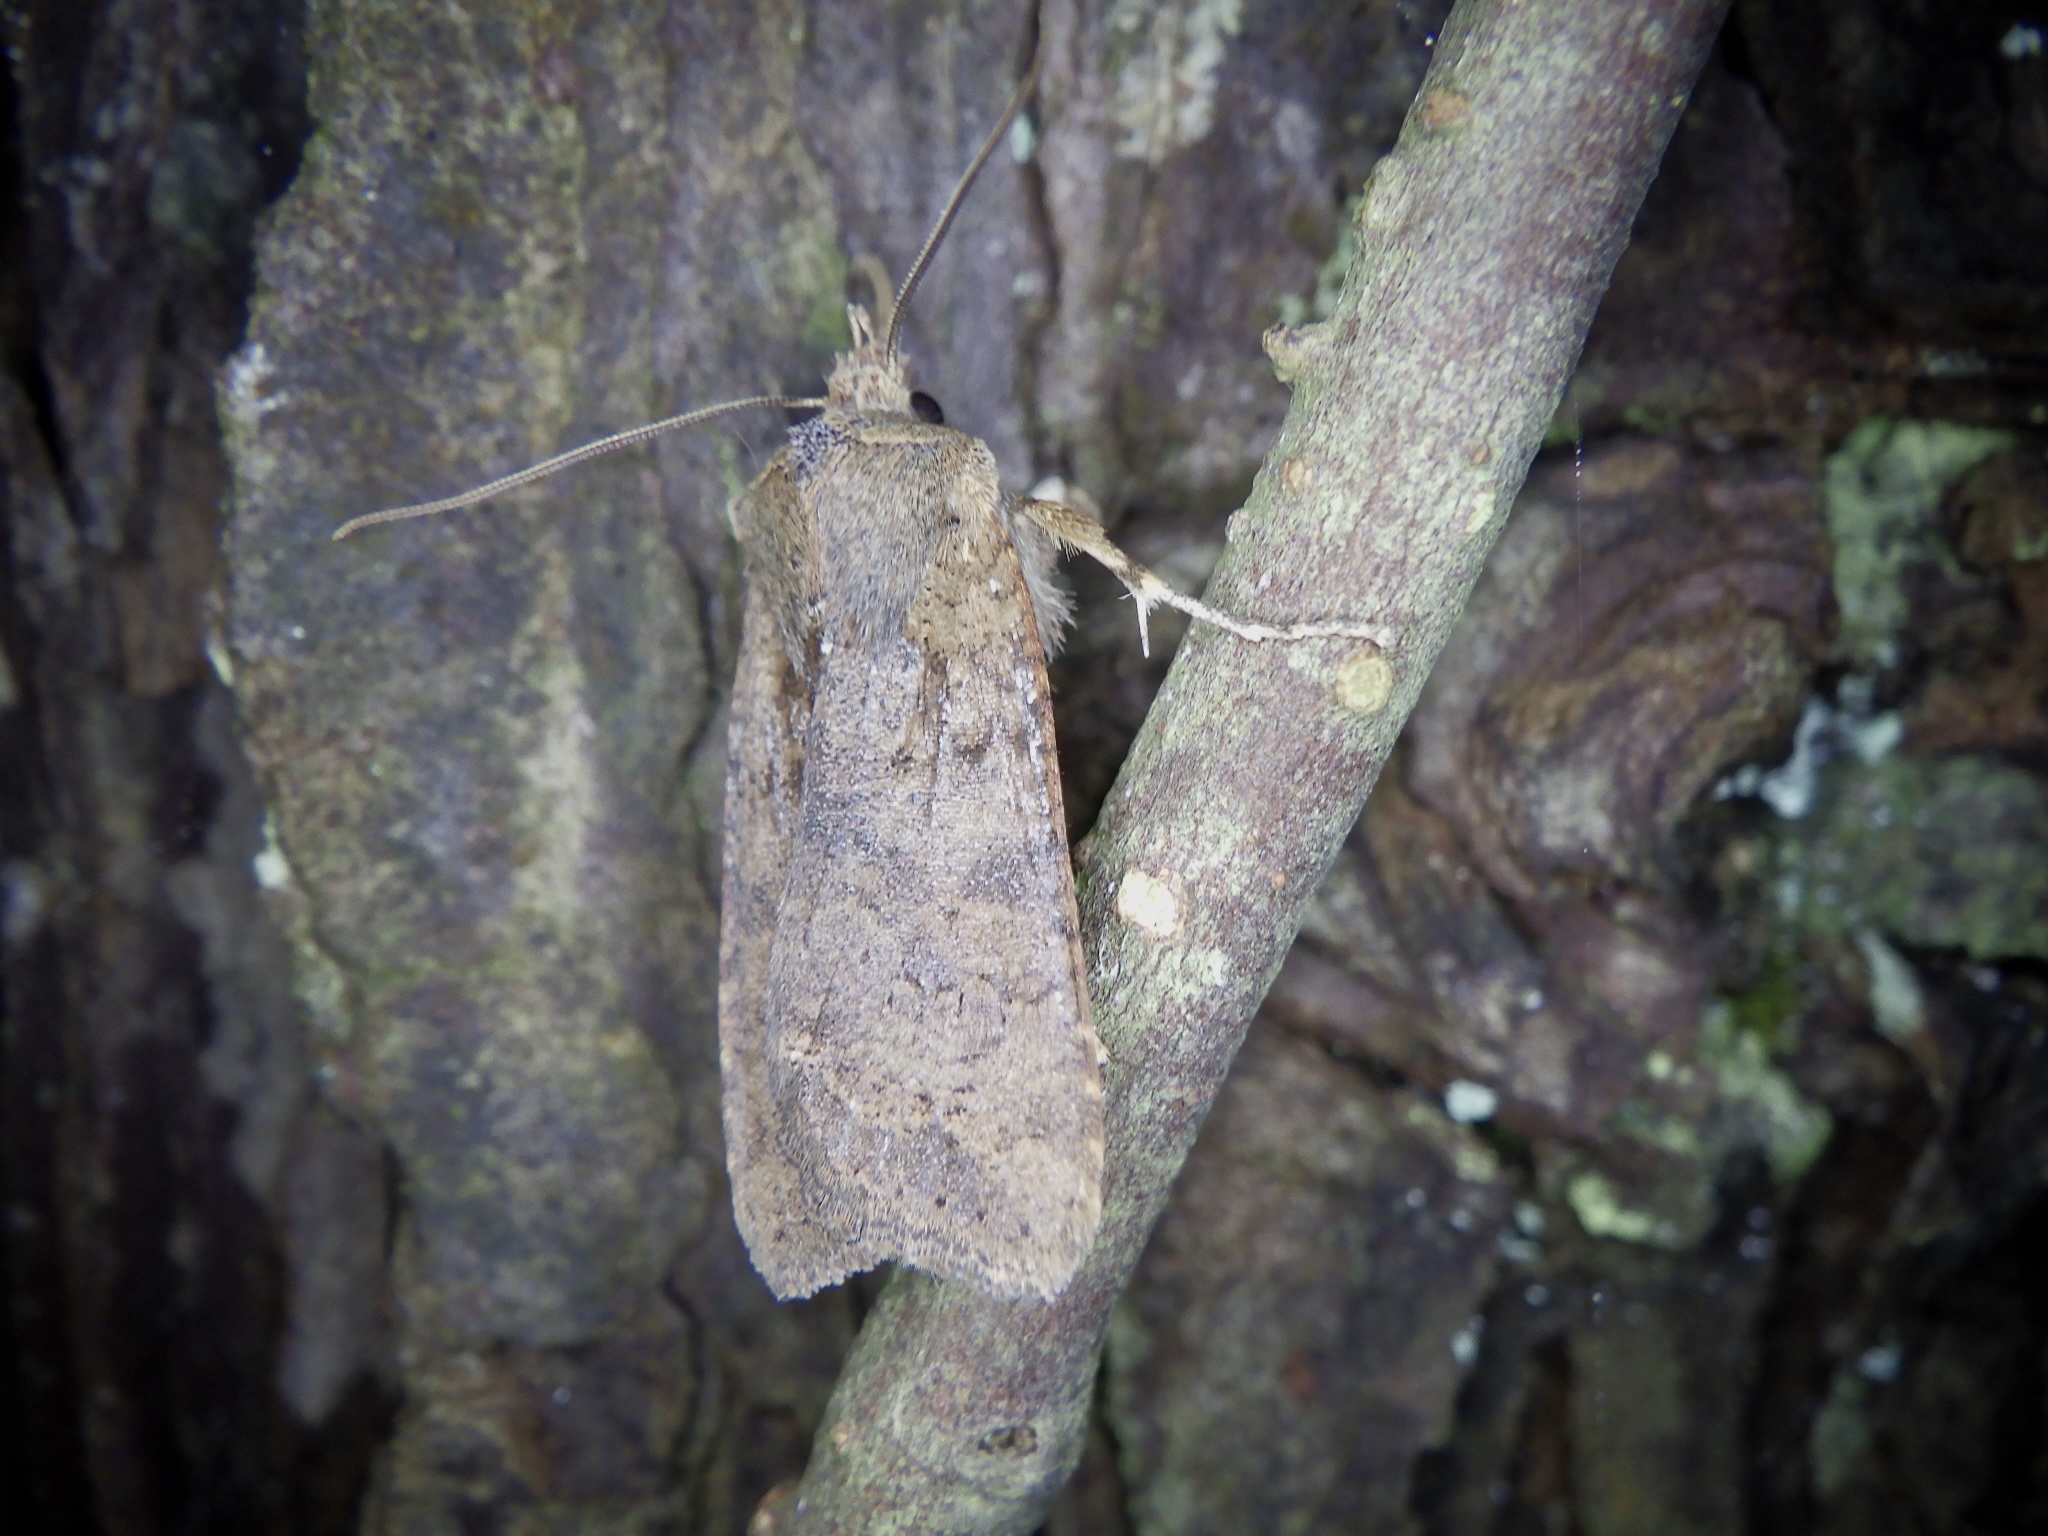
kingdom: Animalia
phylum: Arthropoda
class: Insecta
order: Lepidoptera
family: Noctuidae
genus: Rhynchaglaea
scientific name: Rhynchaglaea fuscipennis
